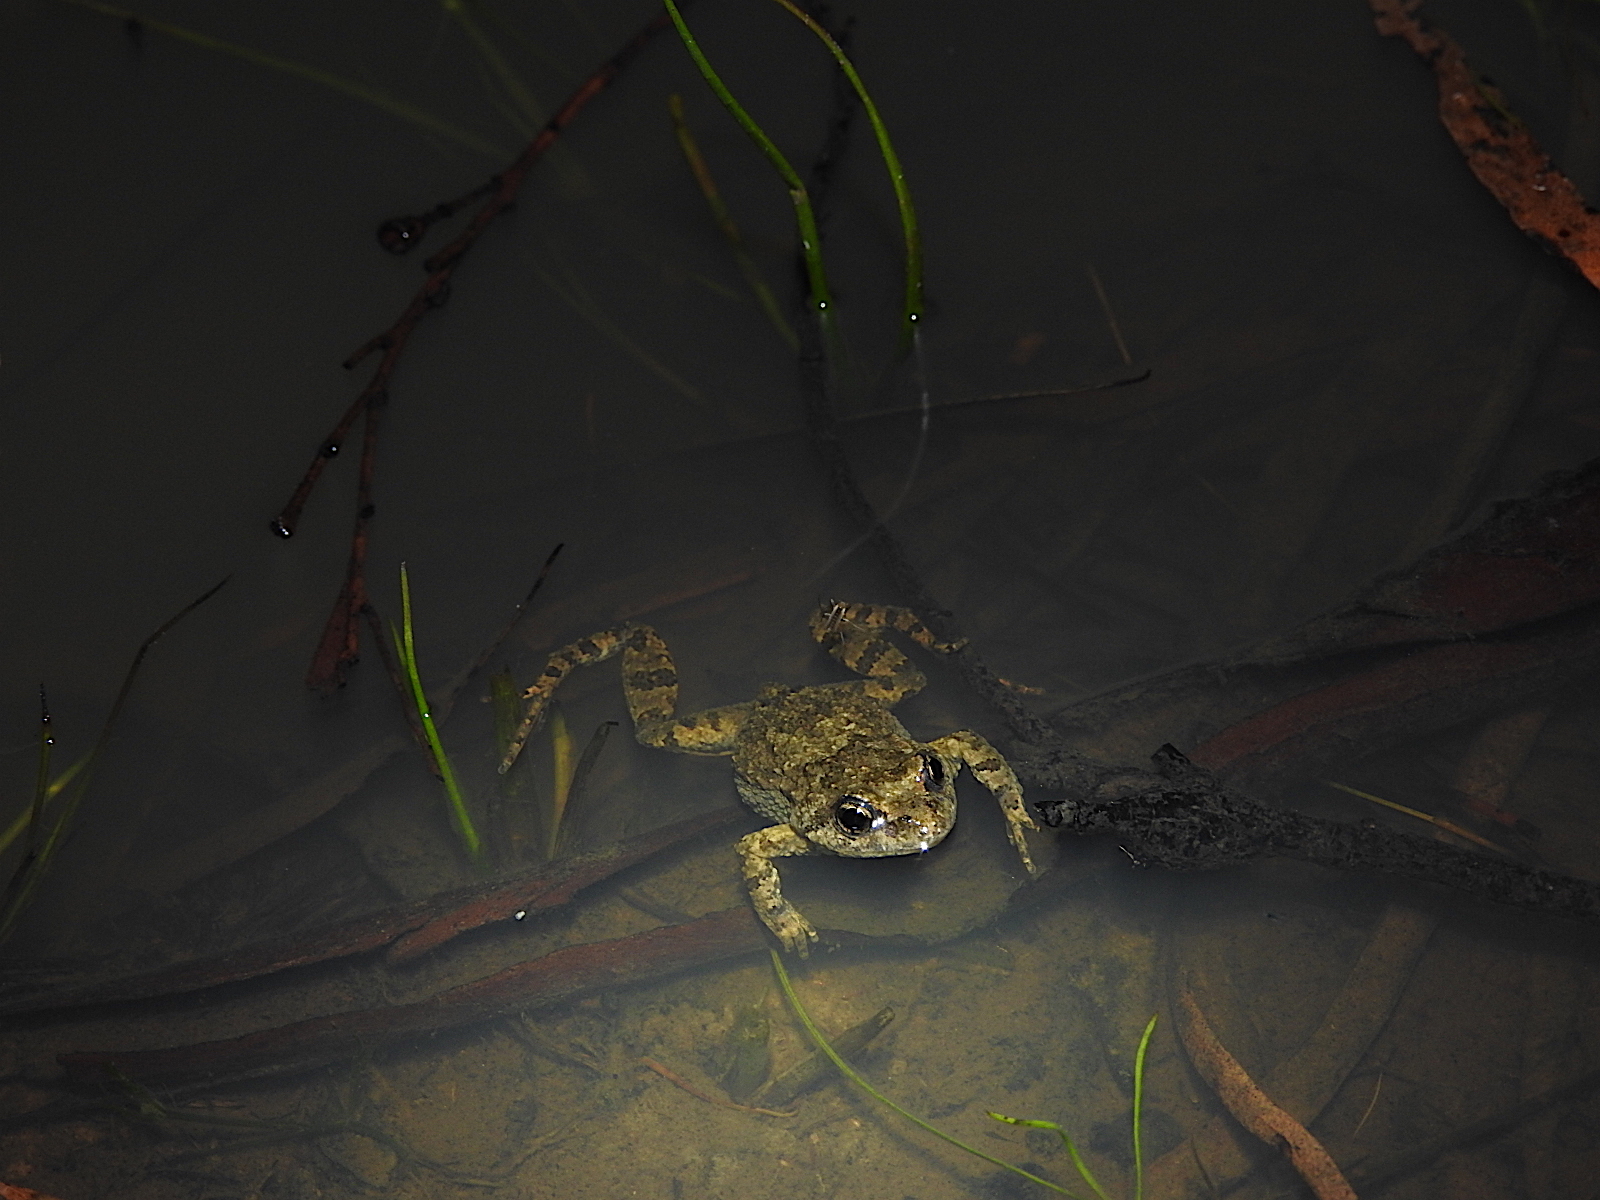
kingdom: Animalia
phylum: Chordata
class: Amphibia
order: Anura
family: Myobatrachidae
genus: Crinia
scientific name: Crinia signifera
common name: Brown froglet
